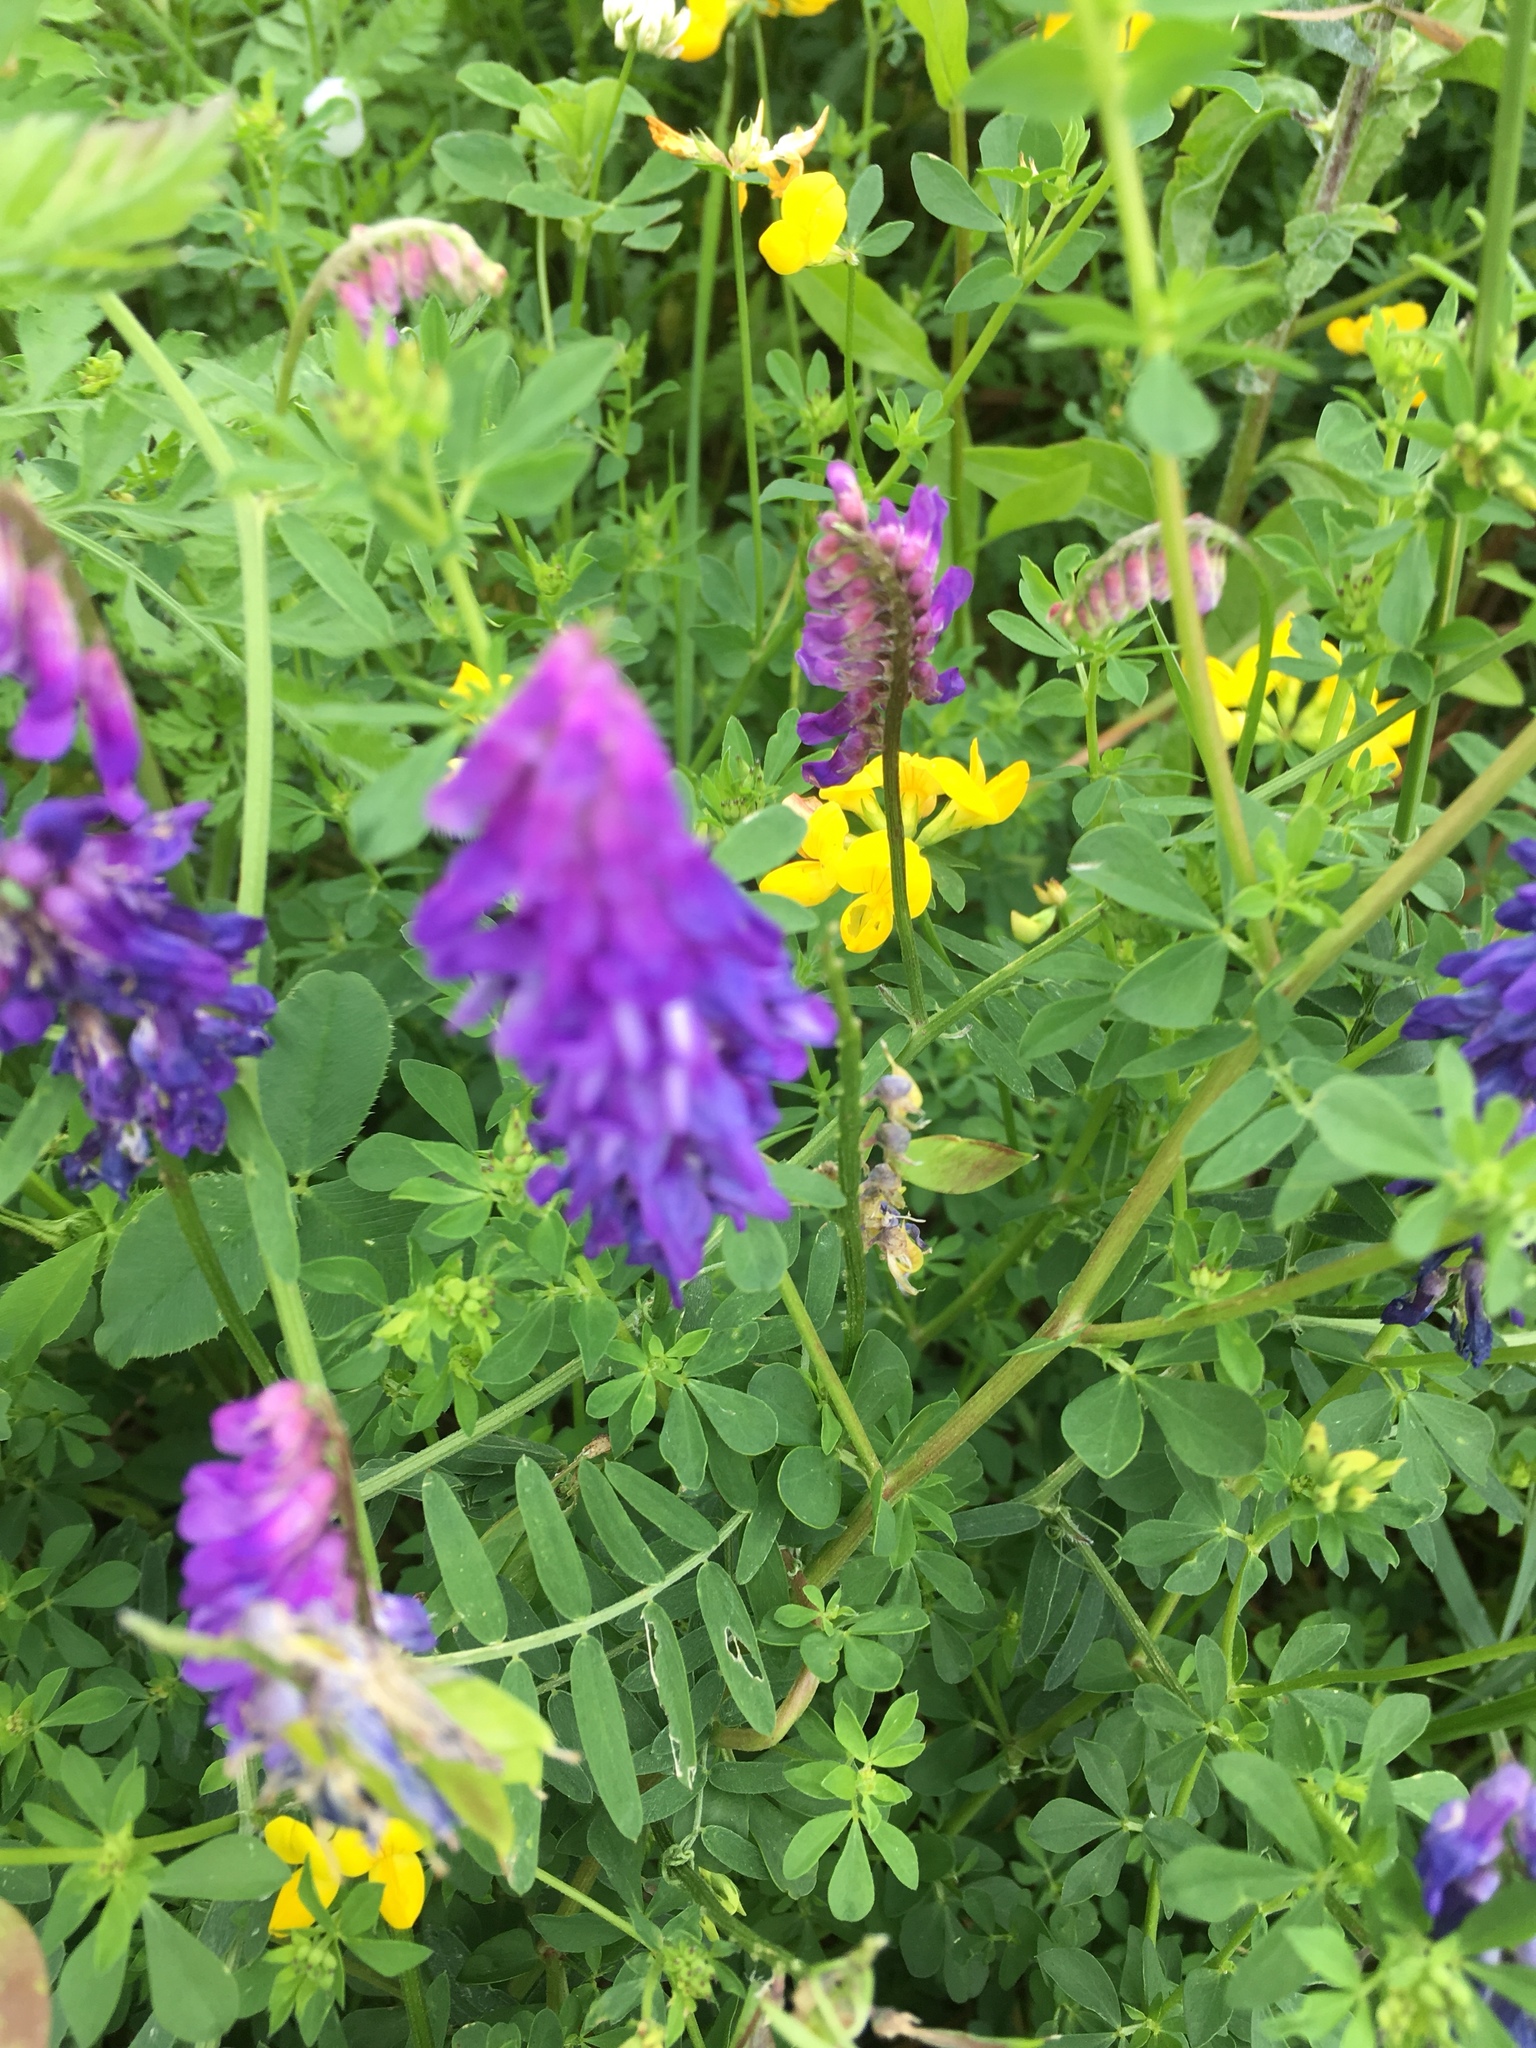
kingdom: Plantae
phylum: Tracheophyta
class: Magnoliopsida
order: Fabales
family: Fabaceae
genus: Vicia
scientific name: Vicia cracca
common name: Bird vetch
